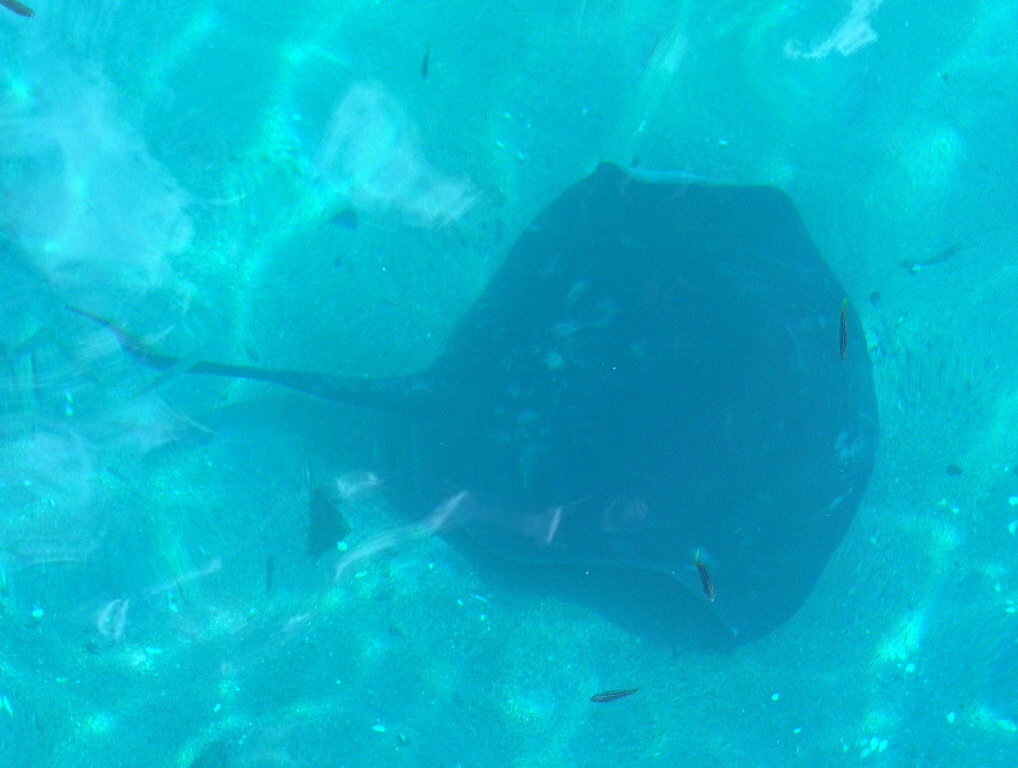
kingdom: Animalia
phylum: Chordata
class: Elasmobranchii
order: Myliobatiformes
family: Dasyatidae
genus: Bathytoshia
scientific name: Bathytoshia brevicaudata
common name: Short-tail stingray
